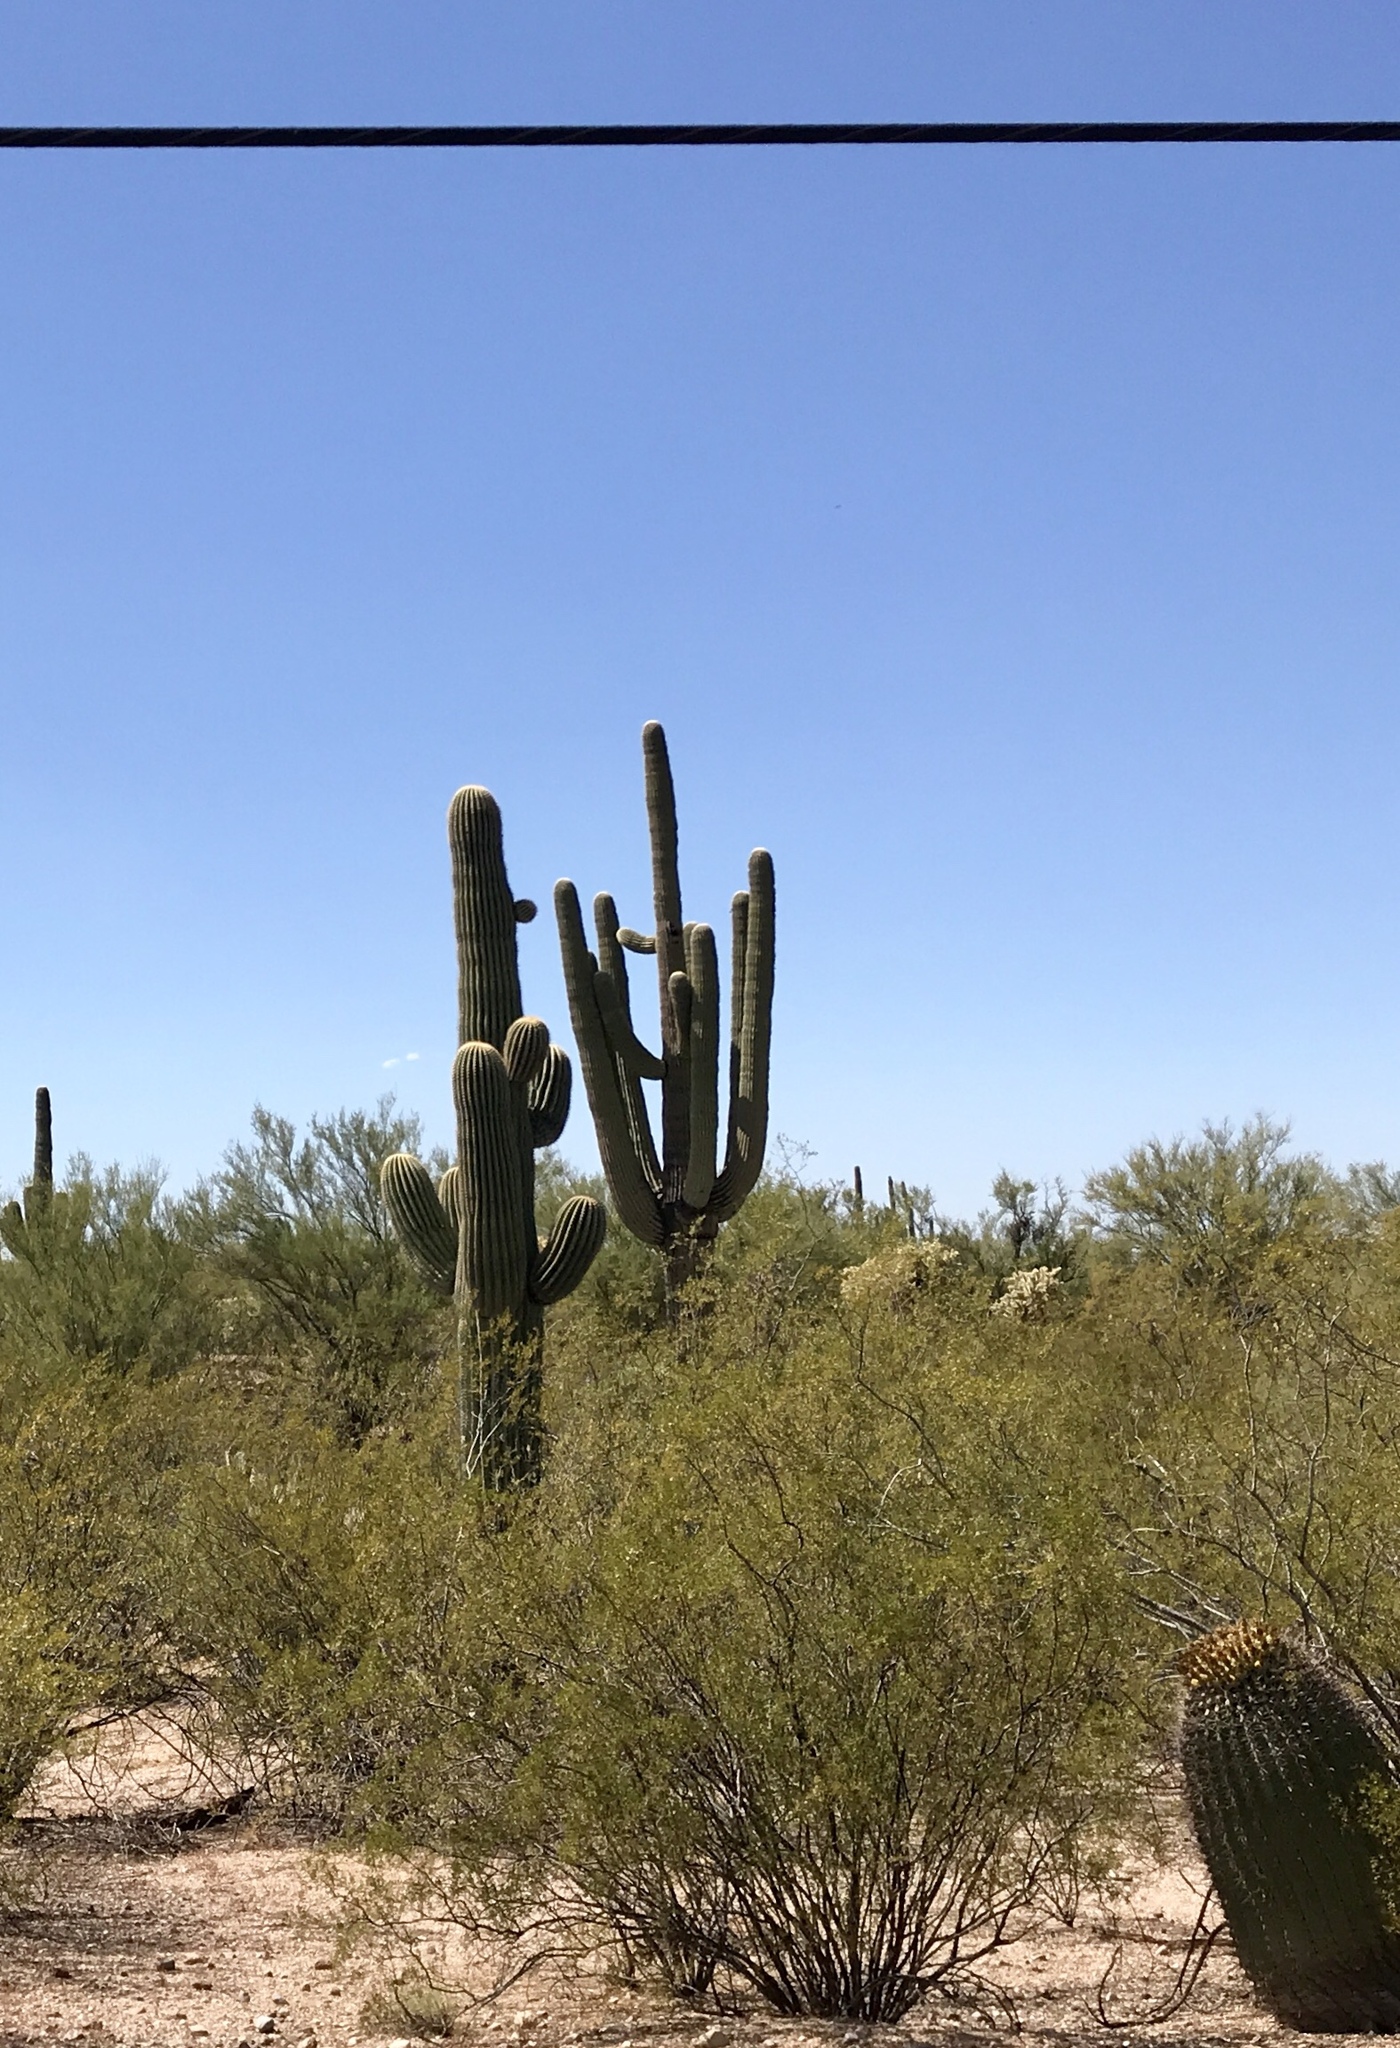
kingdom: Plantae
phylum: Tracheophyta
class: Magnoliopsida
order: Caryophyllales
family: Cactaceae
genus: Carnegiea
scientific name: Carnegiea gigantea
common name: Saguaro
